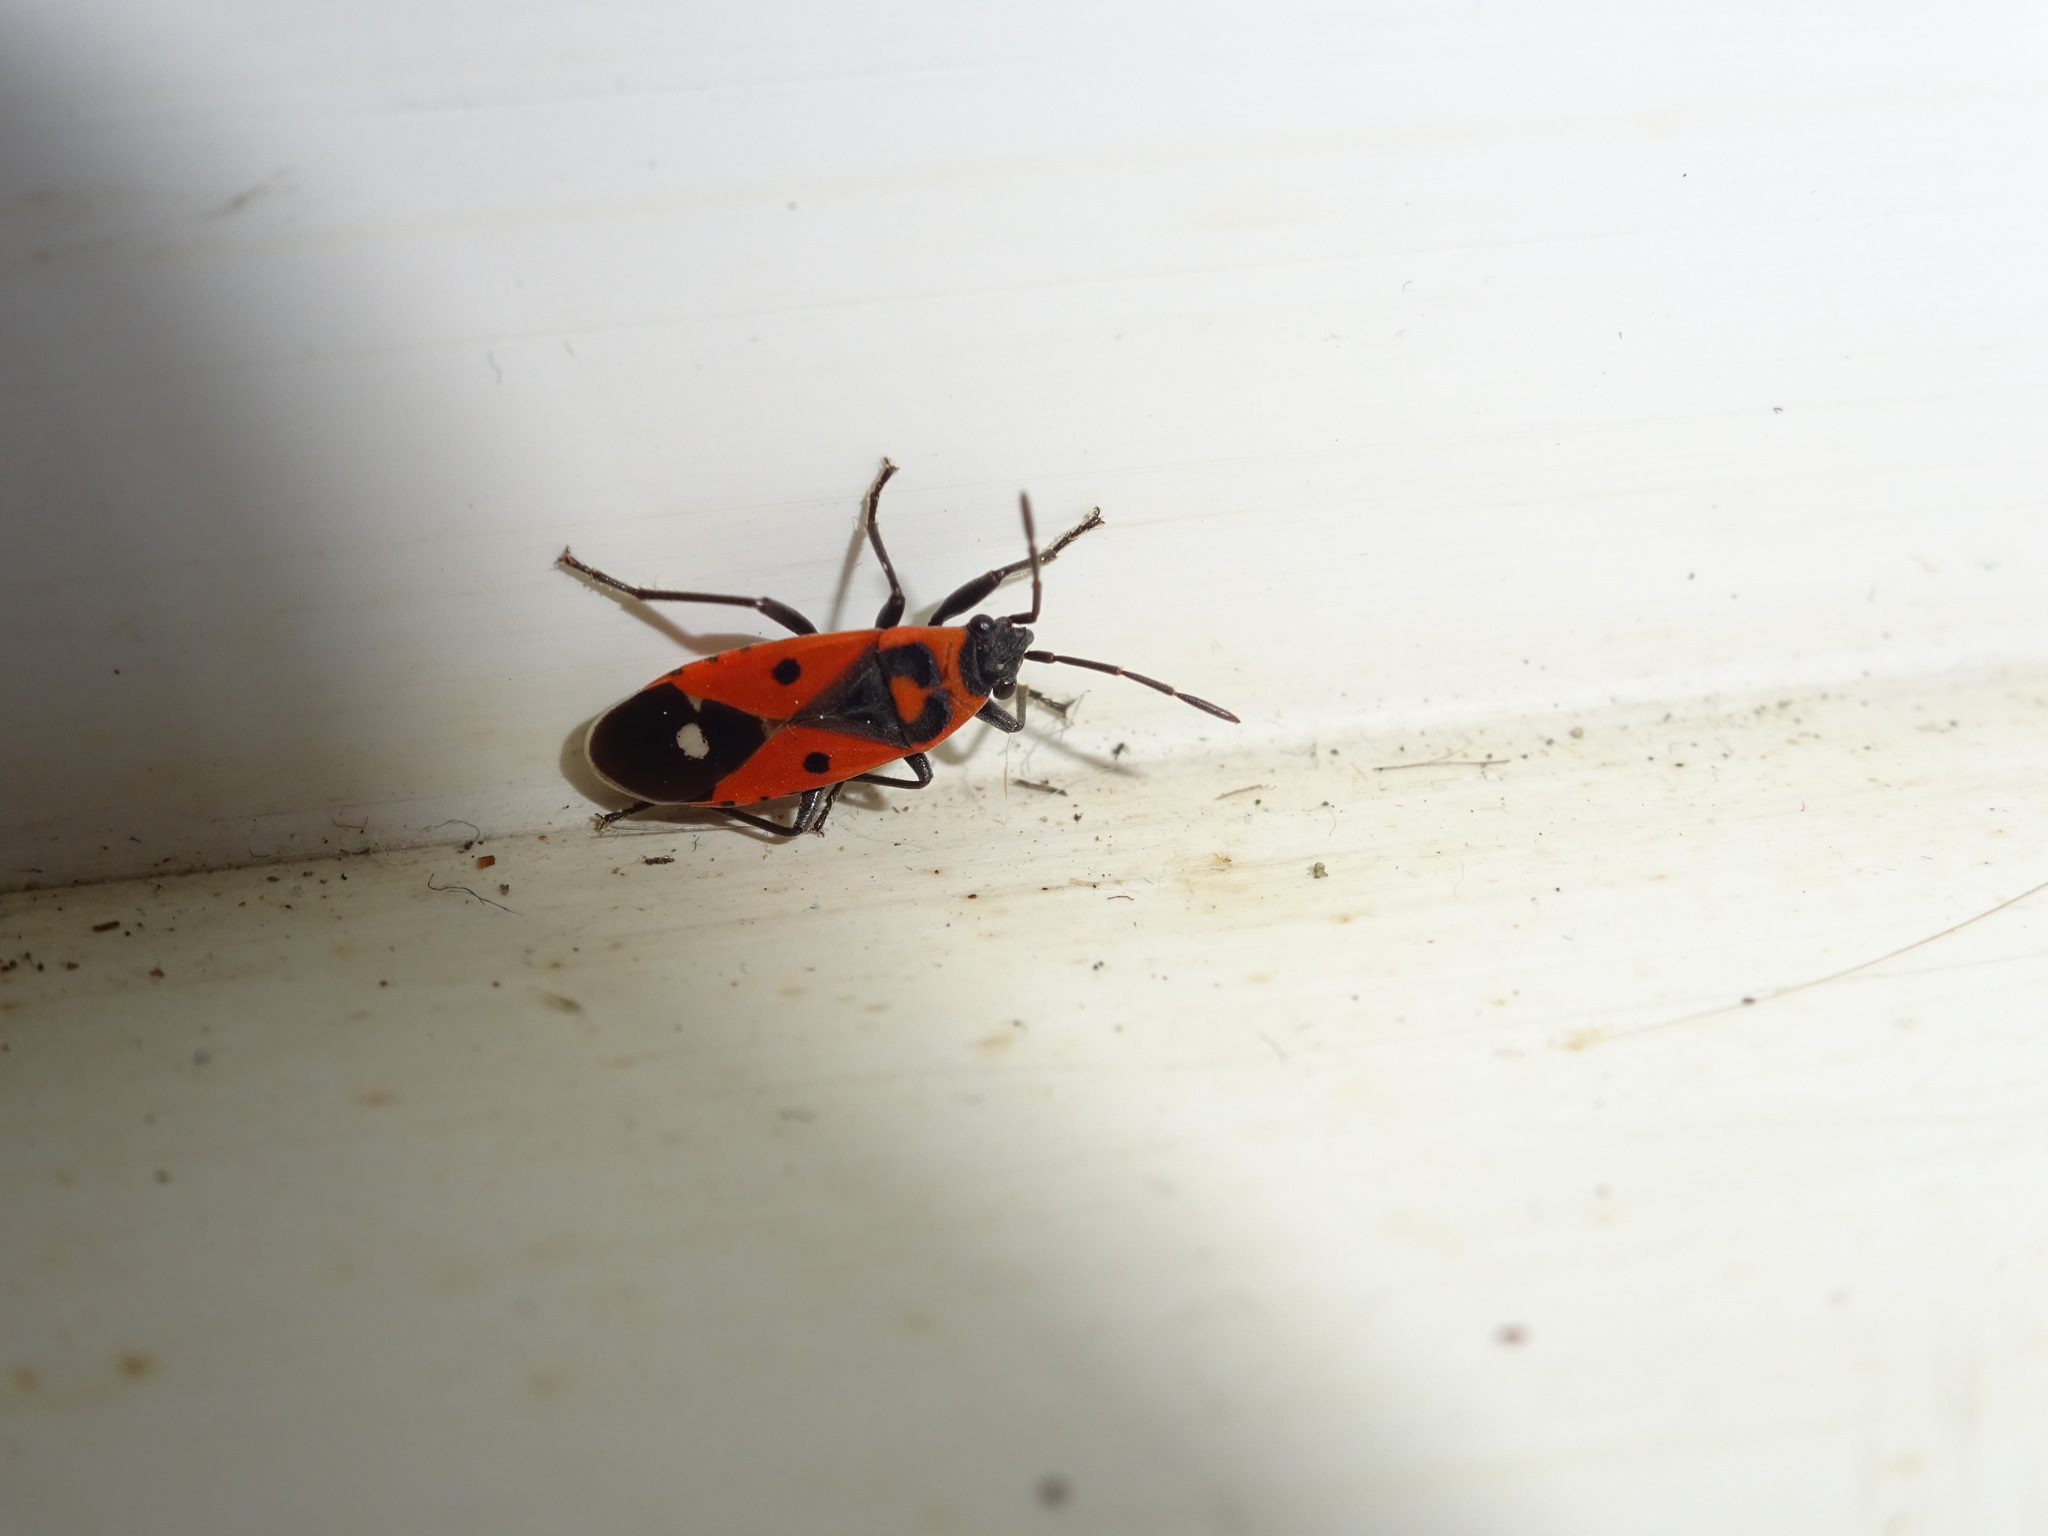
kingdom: Animalia
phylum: Arthropoda
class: Insecta
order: Hemiptera
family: Lygaeidae
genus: Melanocoryphus
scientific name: Melanocoryphus albomaculatus
